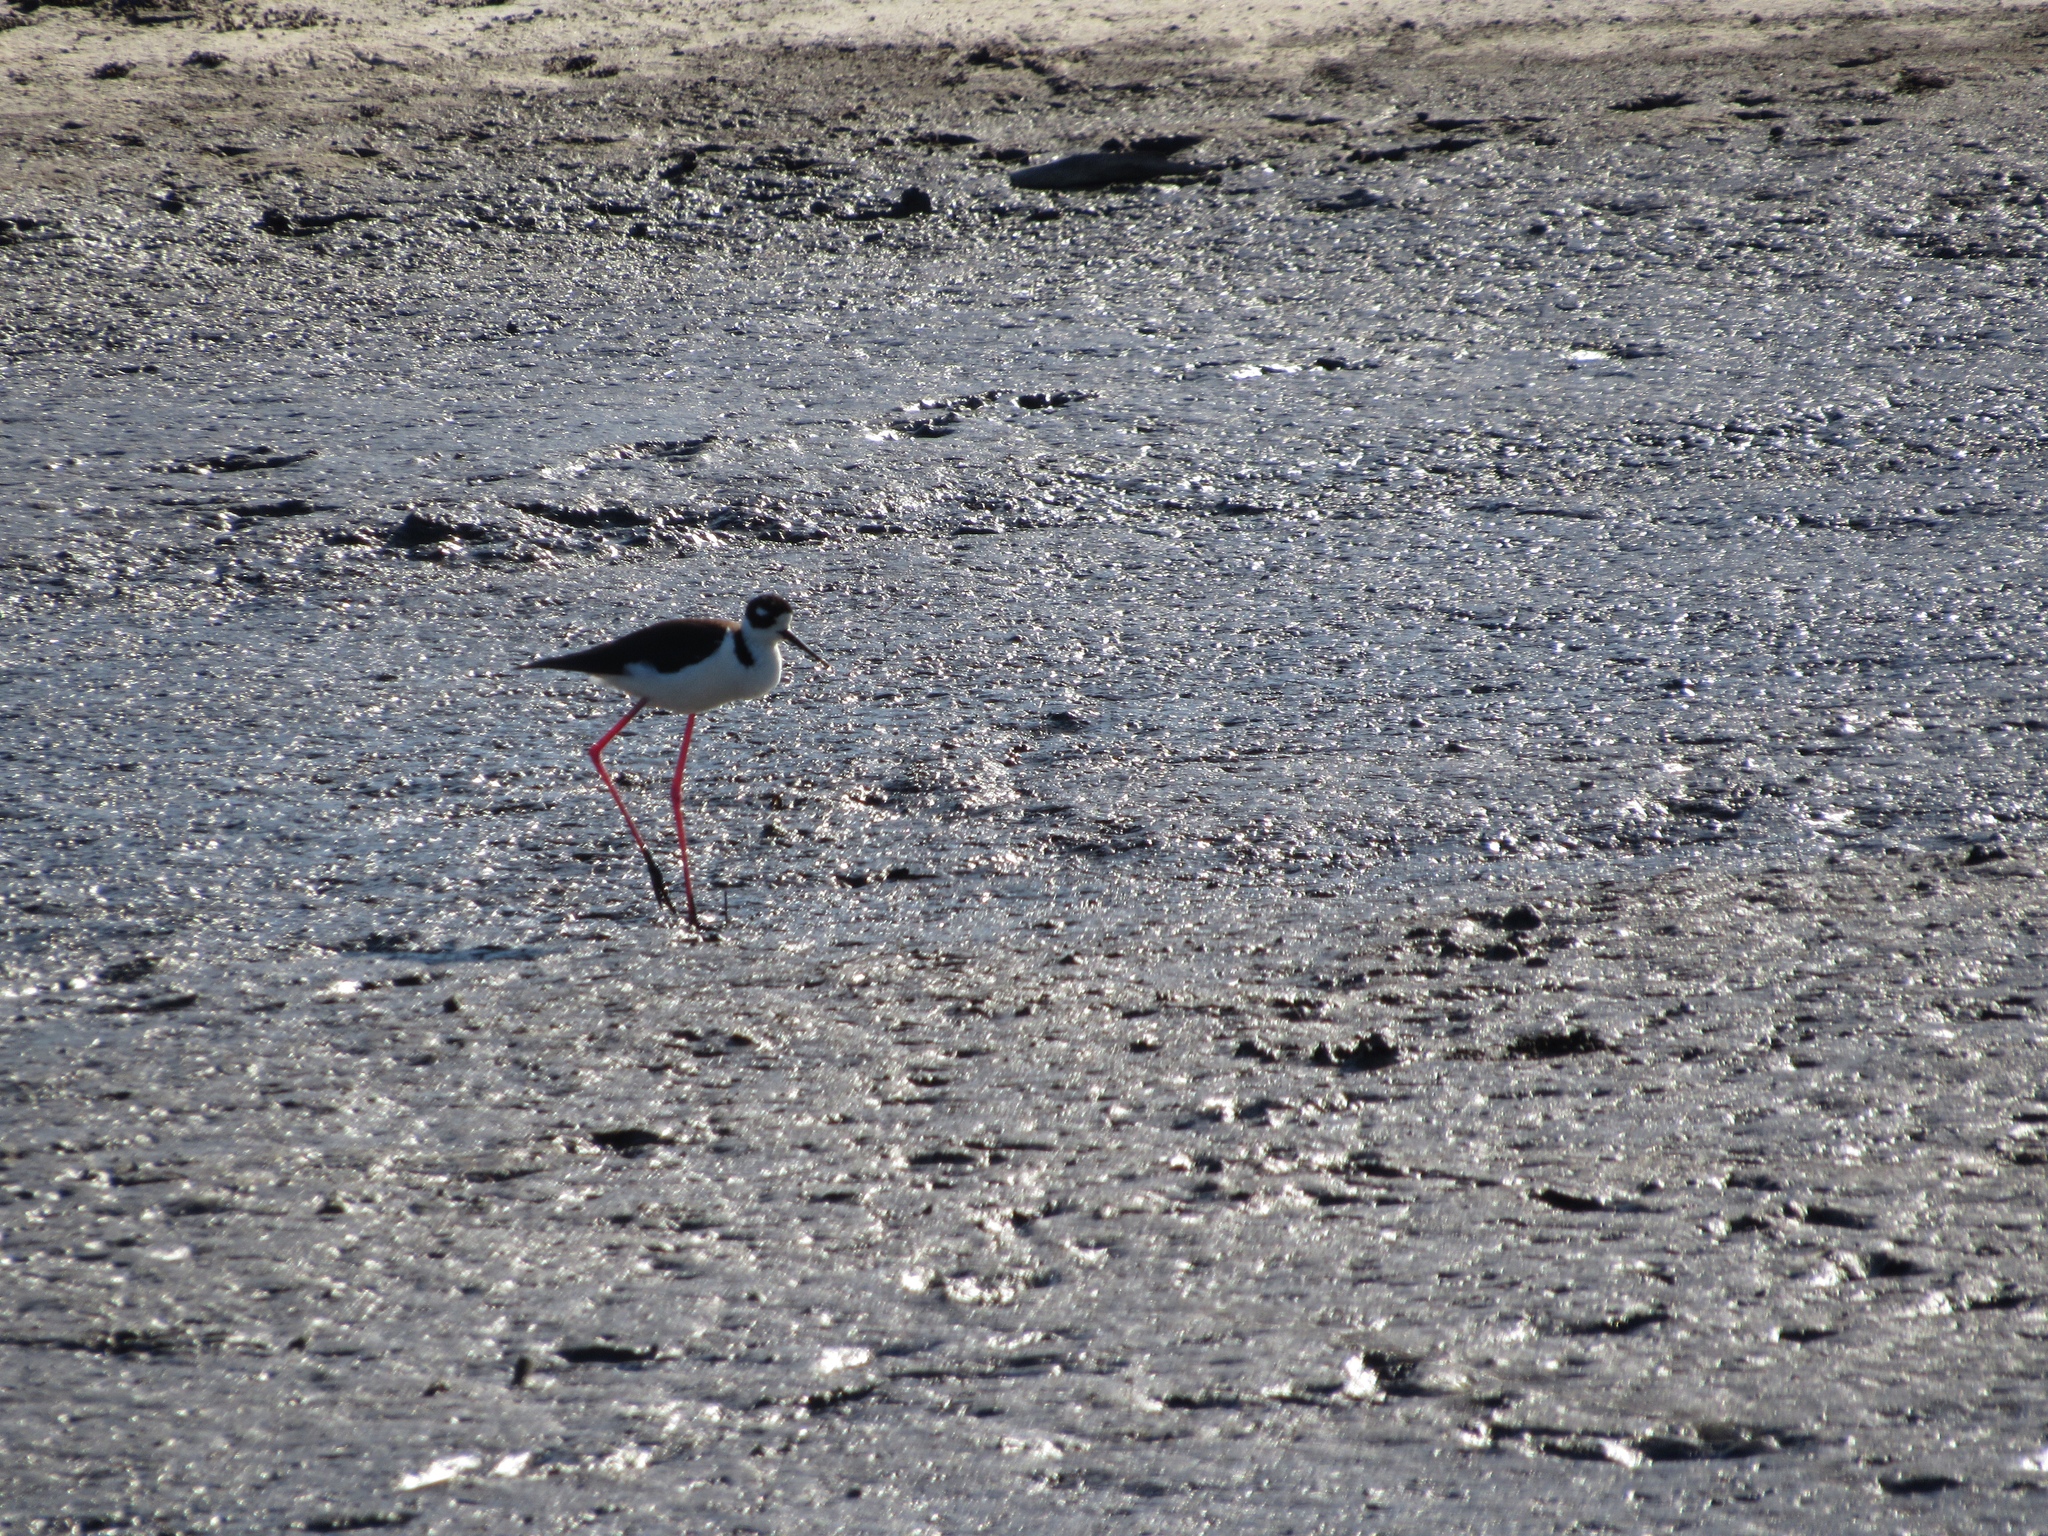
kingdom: Animalia
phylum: Chordata
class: Aves
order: Charadriiformes
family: Recurvirostridae
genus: Himantopus
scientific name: Himantopus mexicanus
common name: Black-necked stilt
